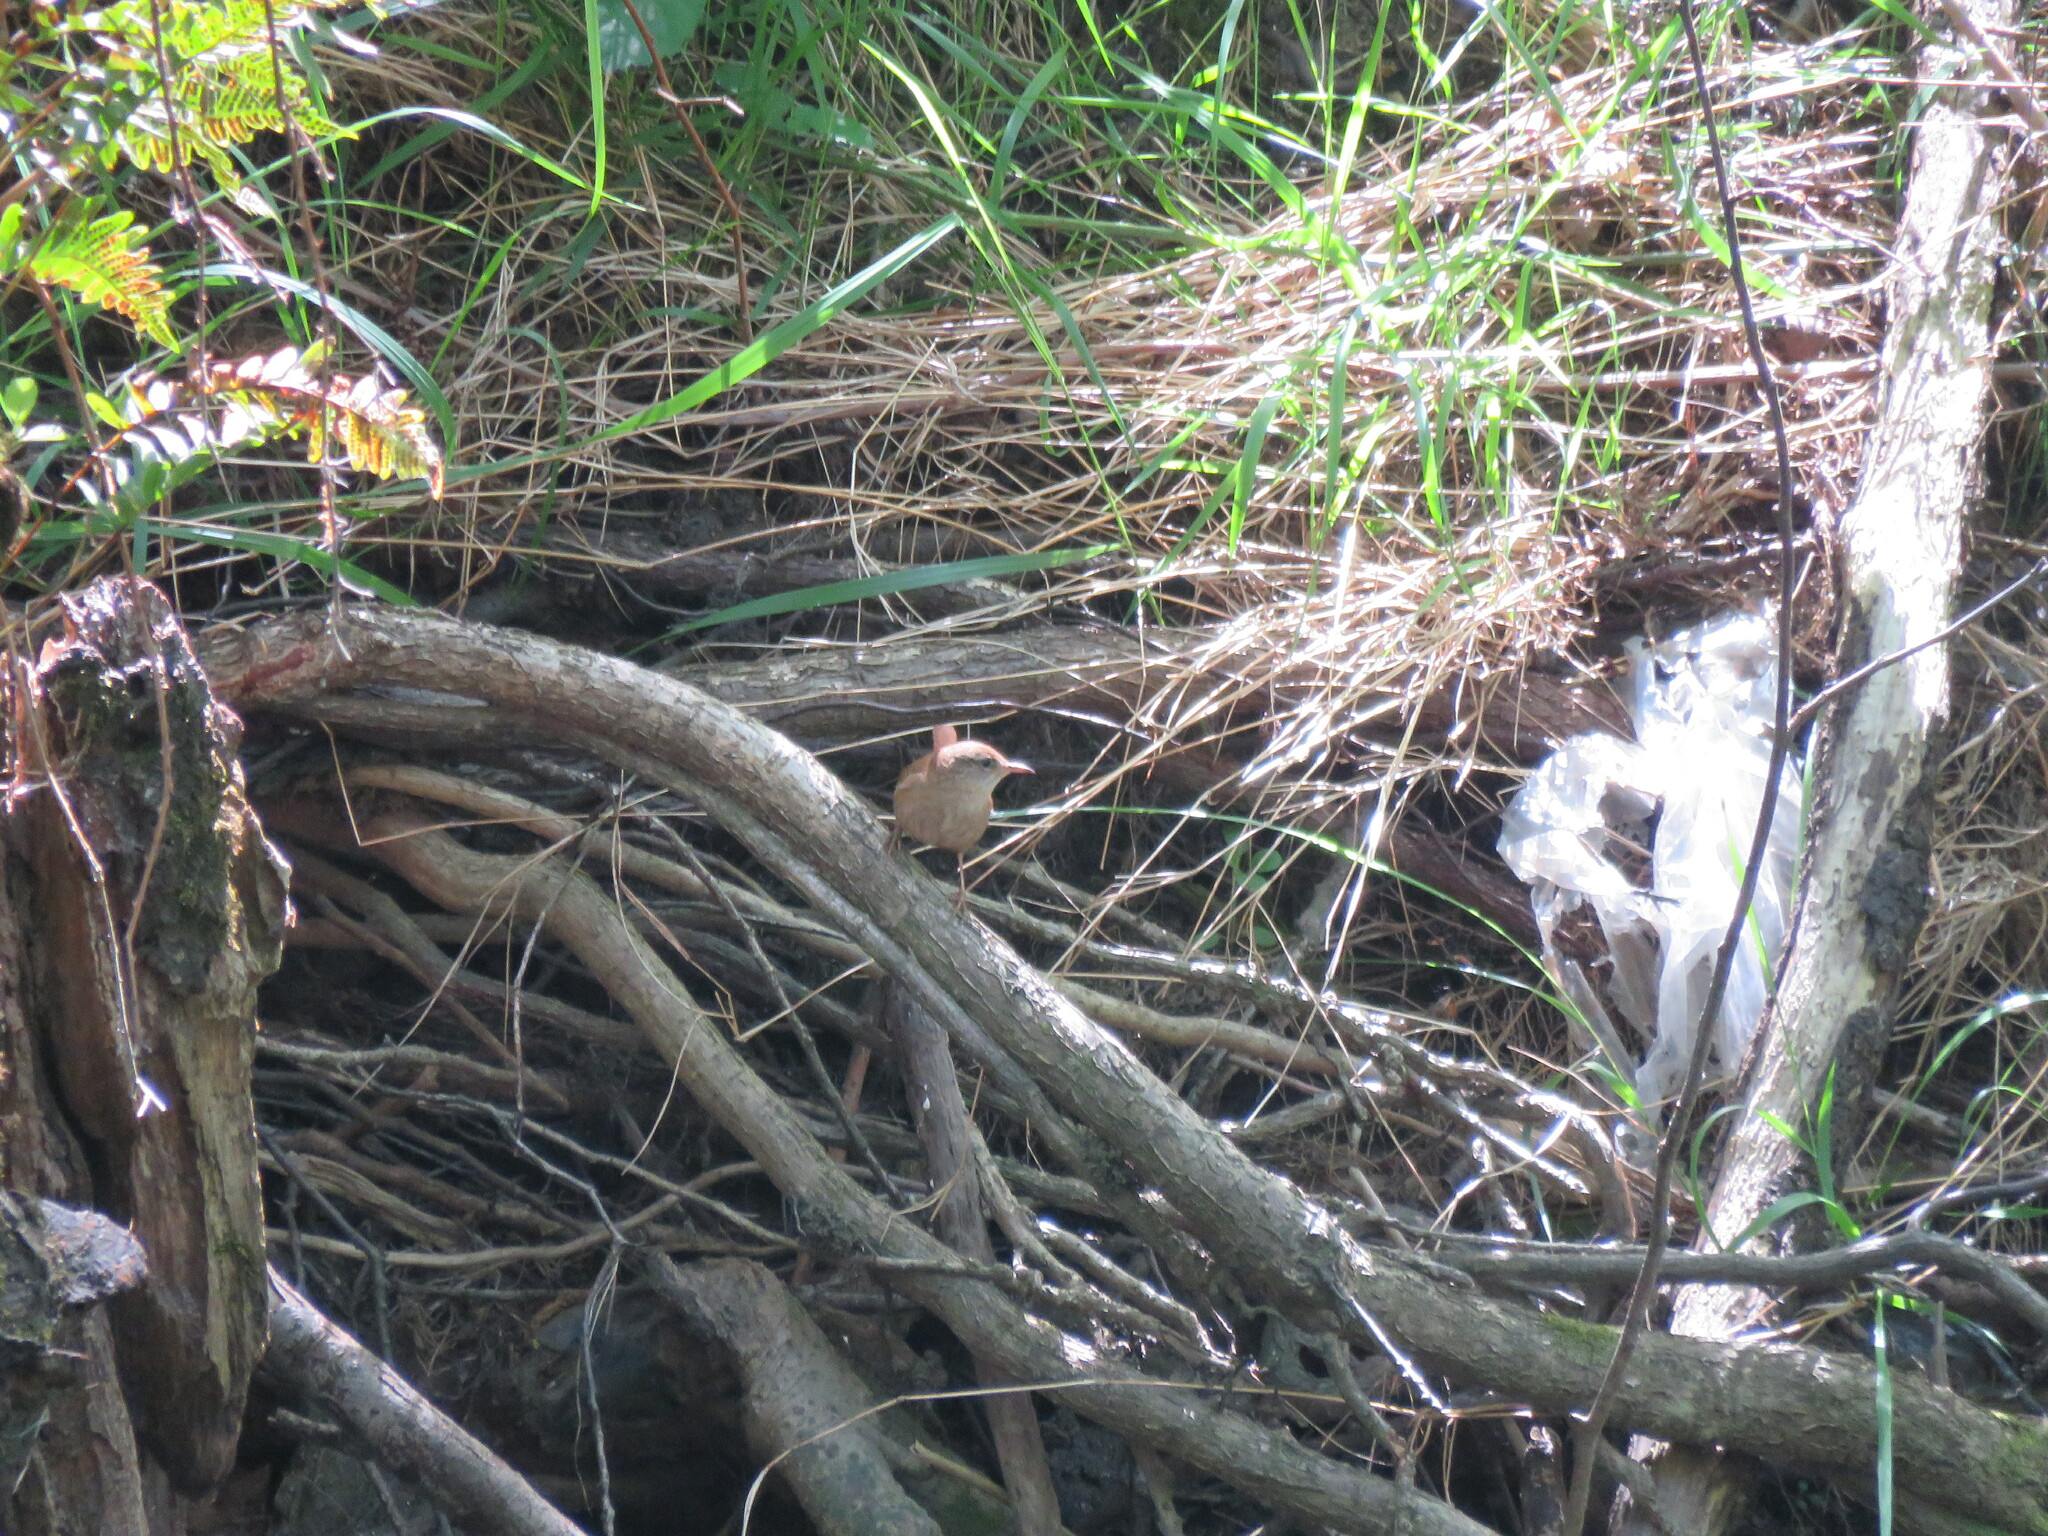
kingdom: Animalia
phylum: Chordata
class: Aves
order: Passeriformes
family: Cettiidae
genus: Cettia
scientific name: Cettia cetti
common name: Cetti's warbler
